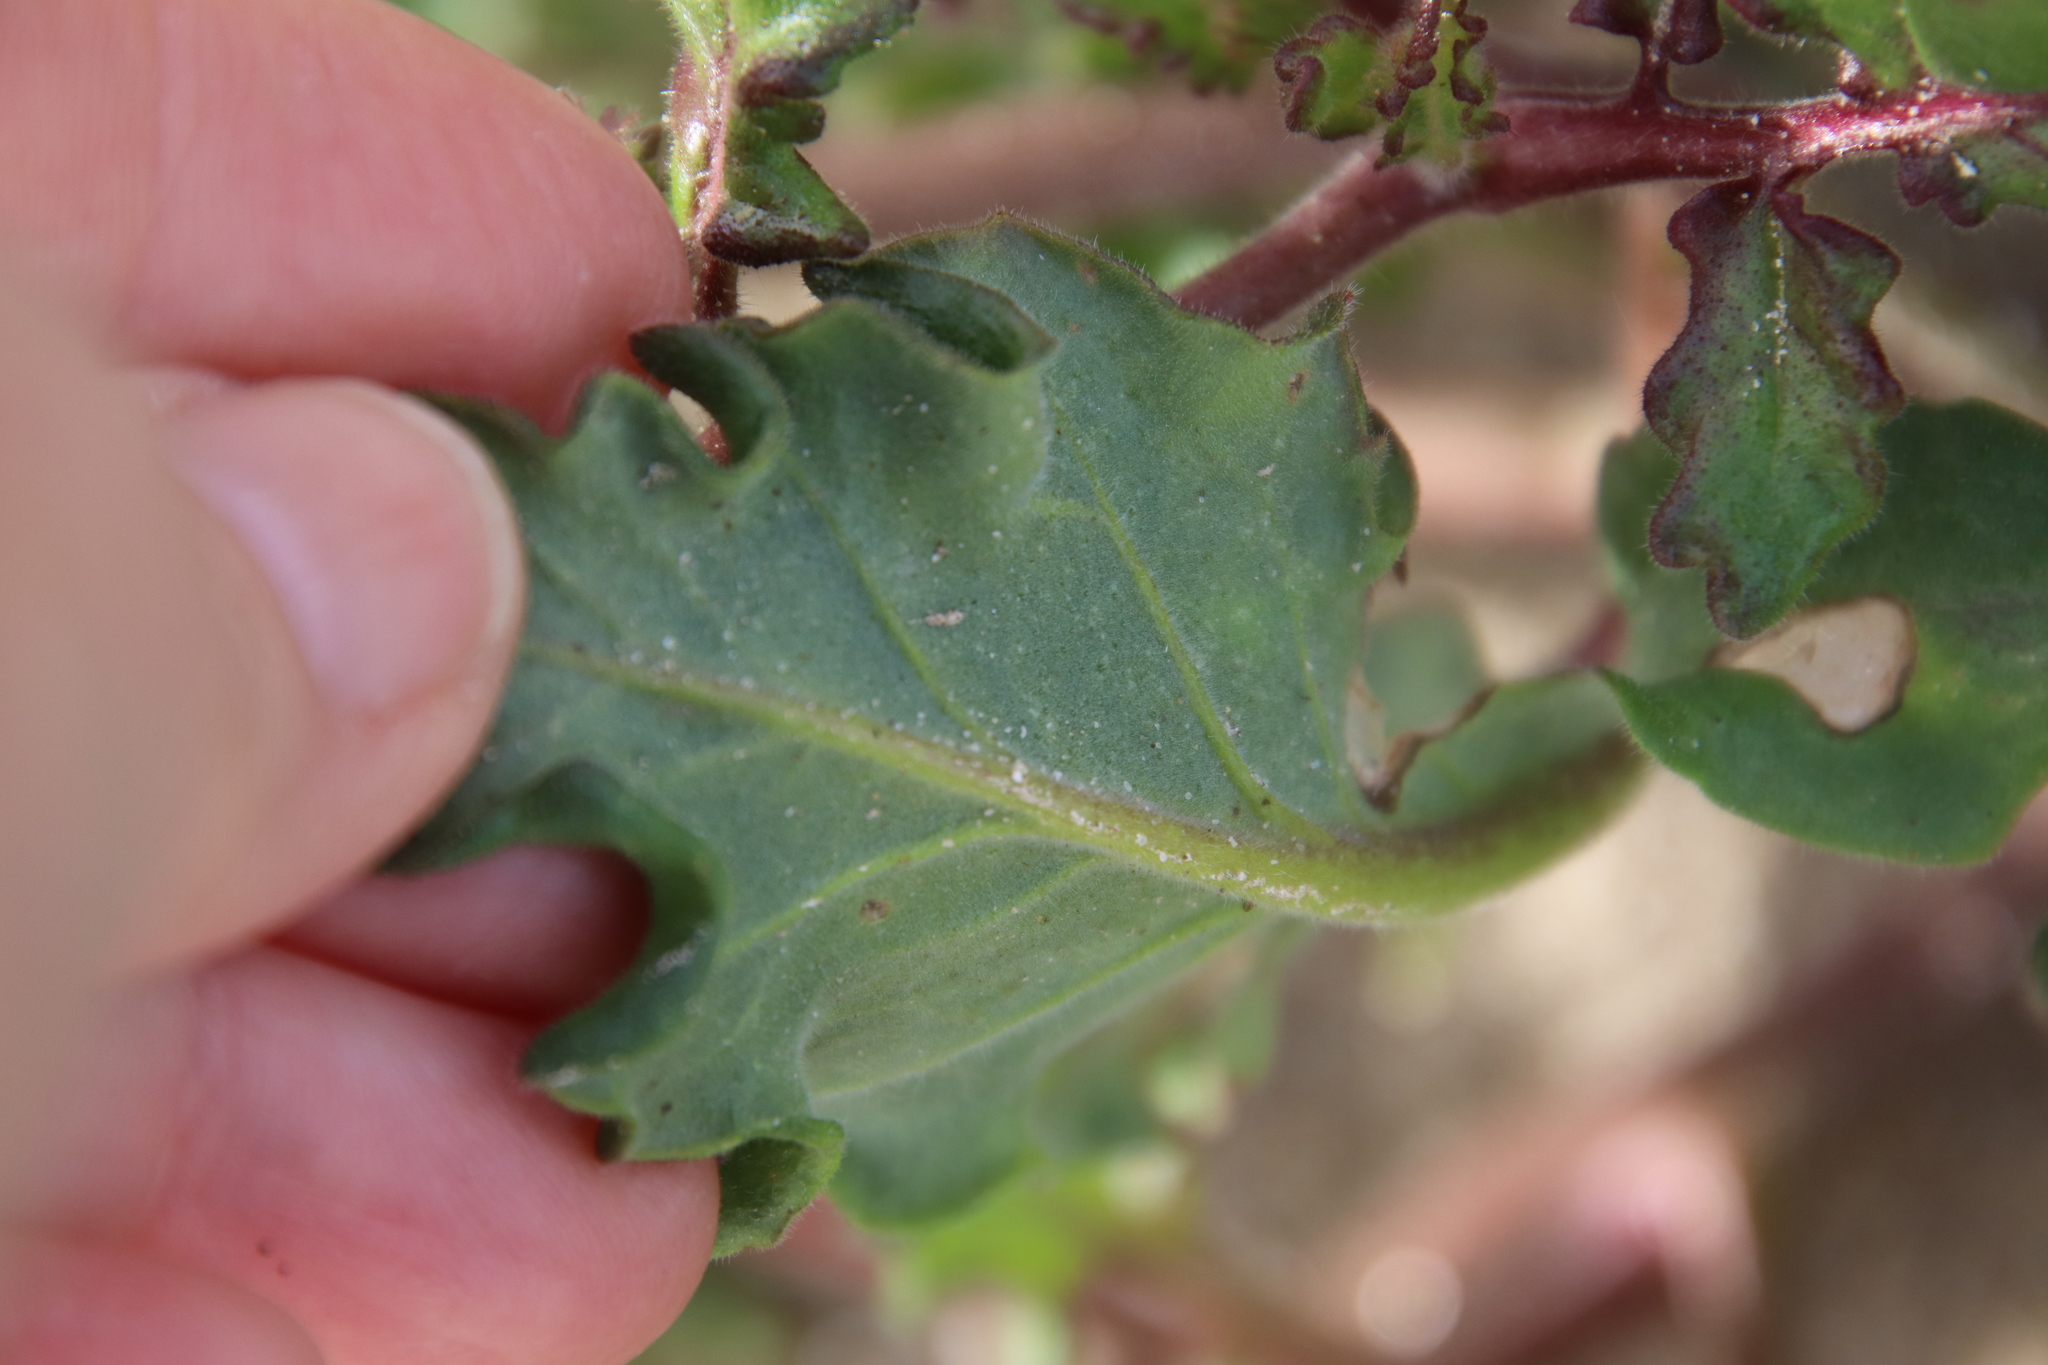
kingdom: Plantae
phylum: Tracheophyta
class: Magnoliopsida
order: Boraginales
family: Hydrophyllaceae
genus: Phacelia
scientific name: Phacelia crenulata
